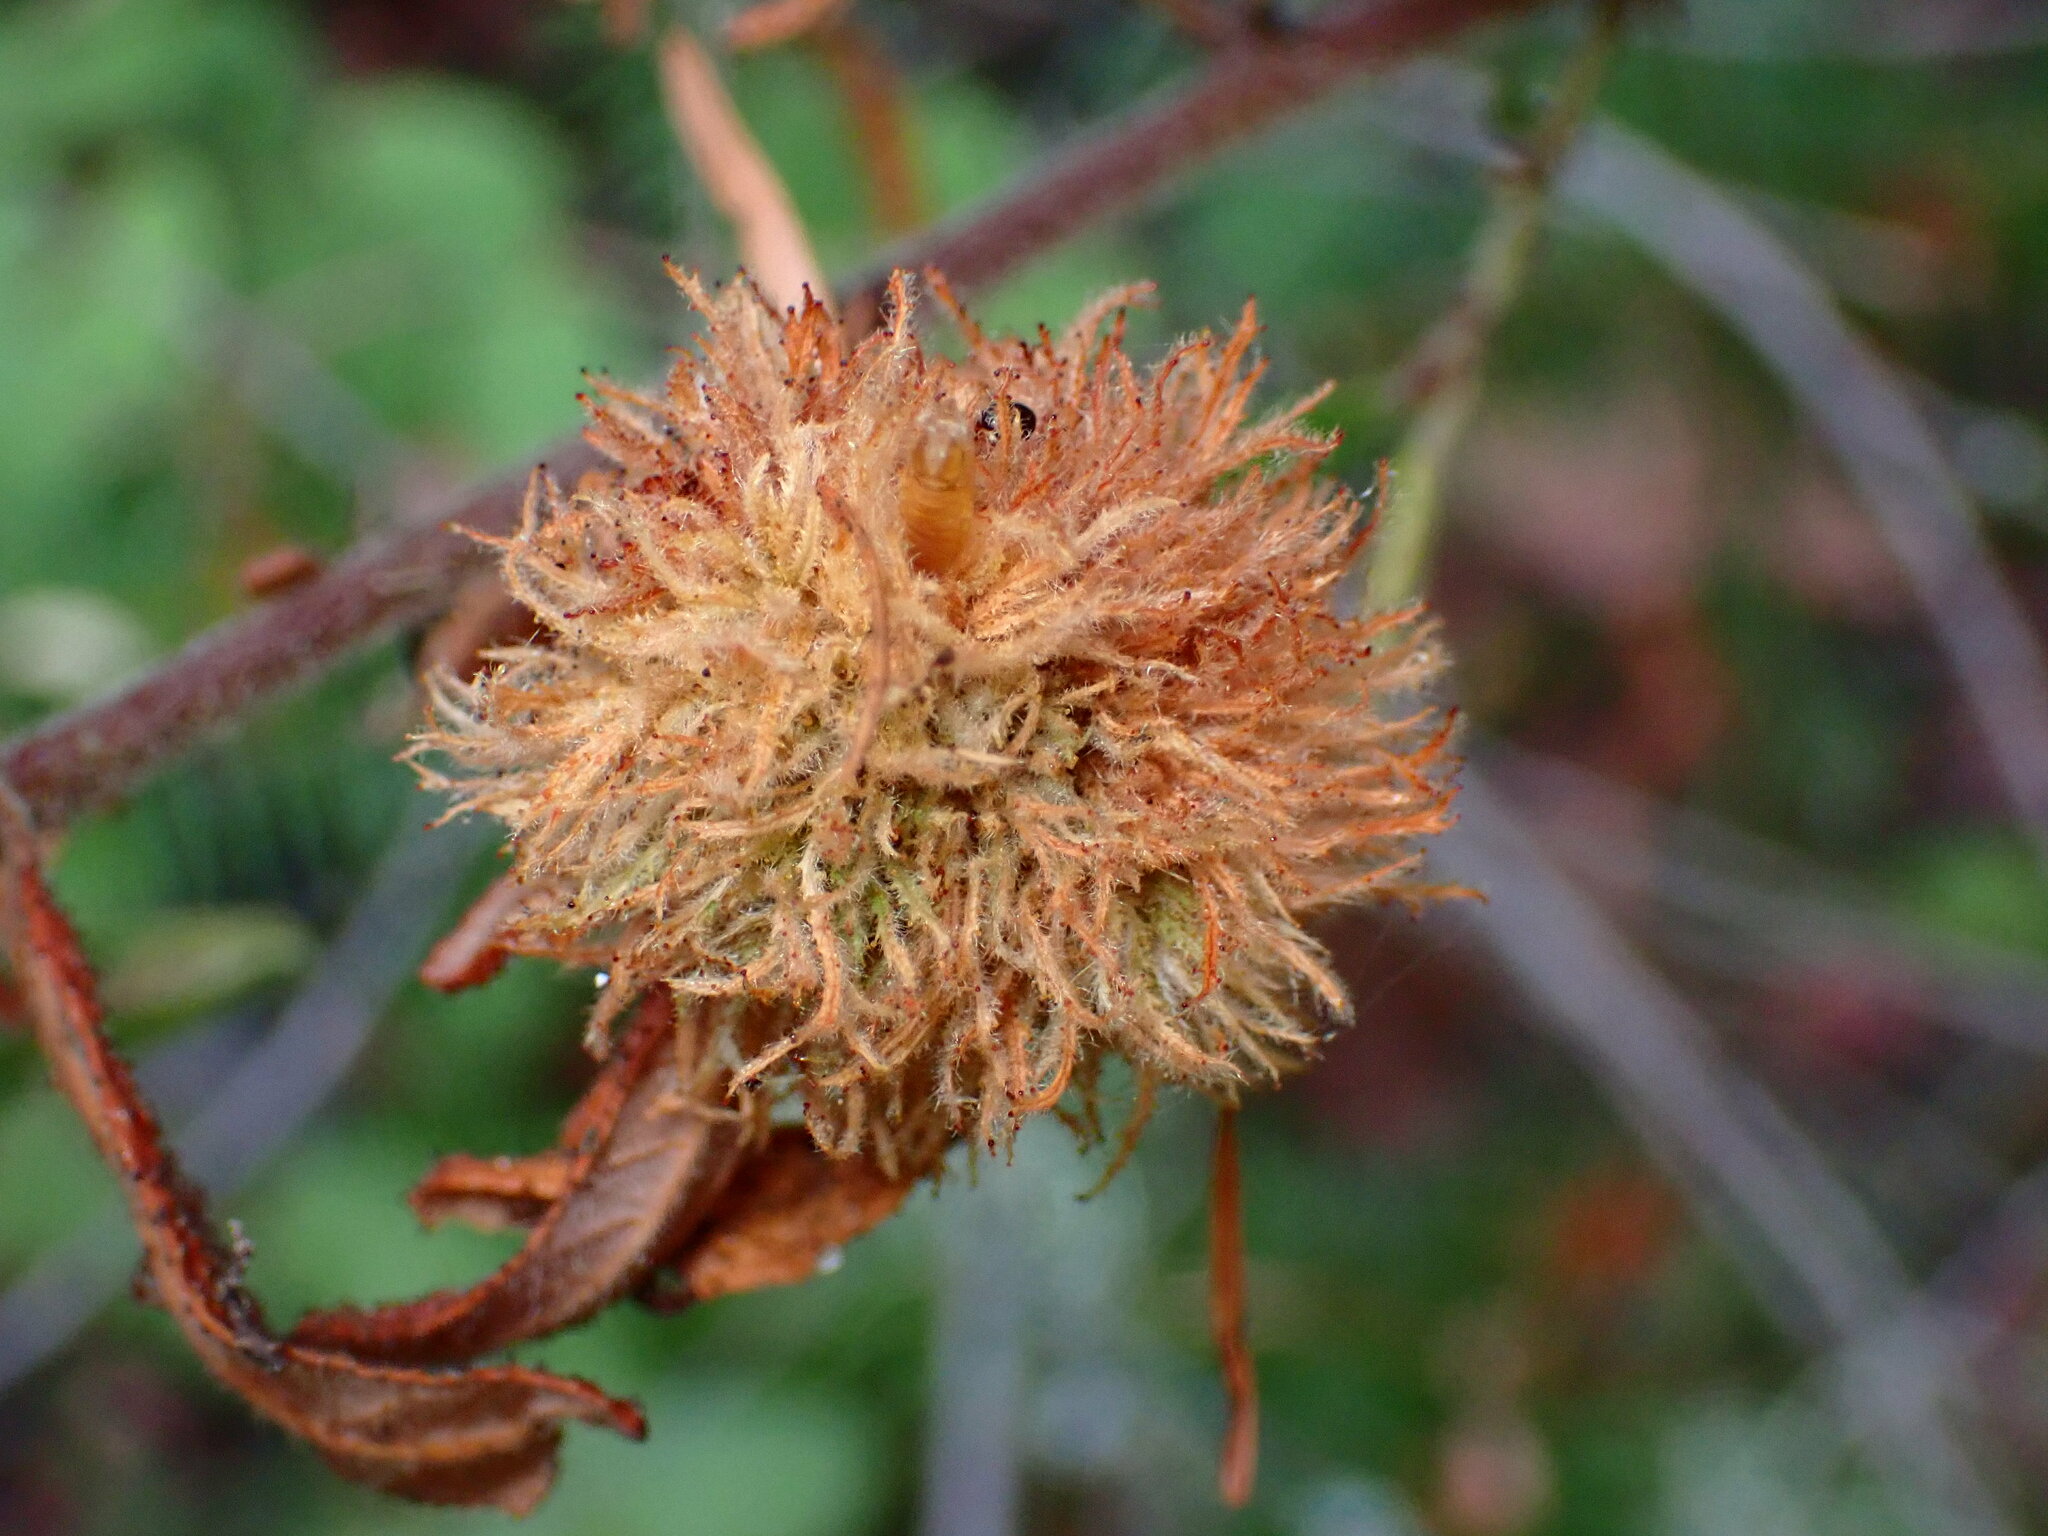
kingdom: Animalia
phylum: Arthropoda
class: Insecta
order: Diptera
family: Cecidomyiidae
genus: Asphondylia
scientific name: Asphondylia ceanothi
